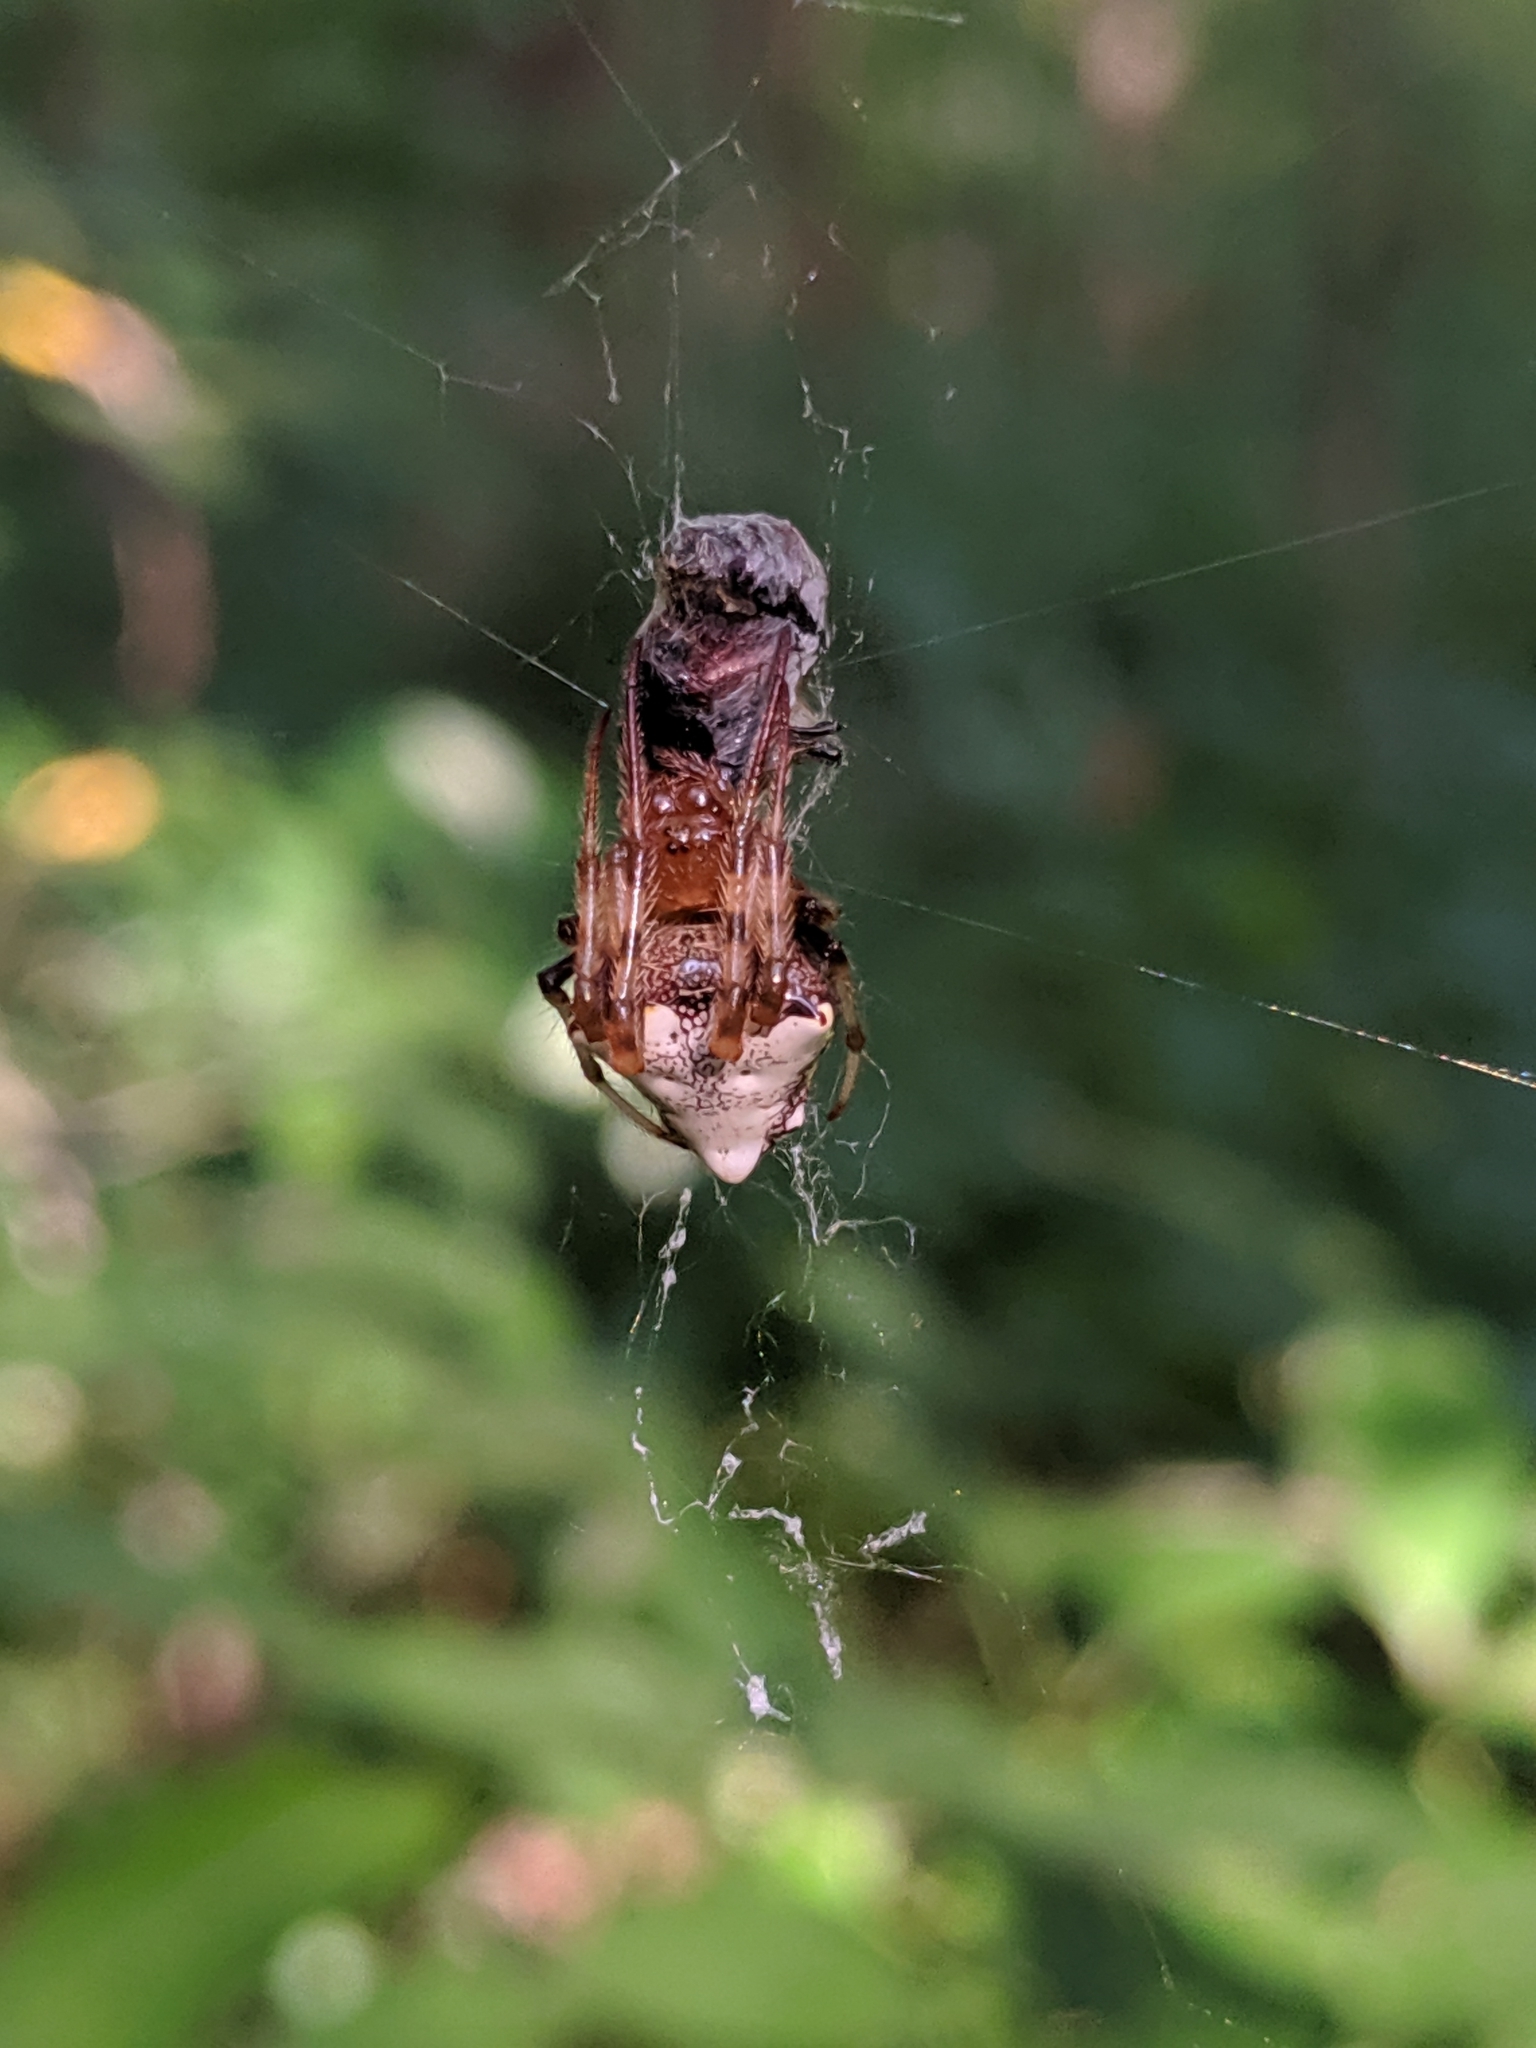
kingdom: Animalia
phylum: Arthropoda
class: Arachnida
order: Araneae
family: Araneidae
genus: Verrucosa
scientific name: Verrucosa arenata
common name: Orb weavers
